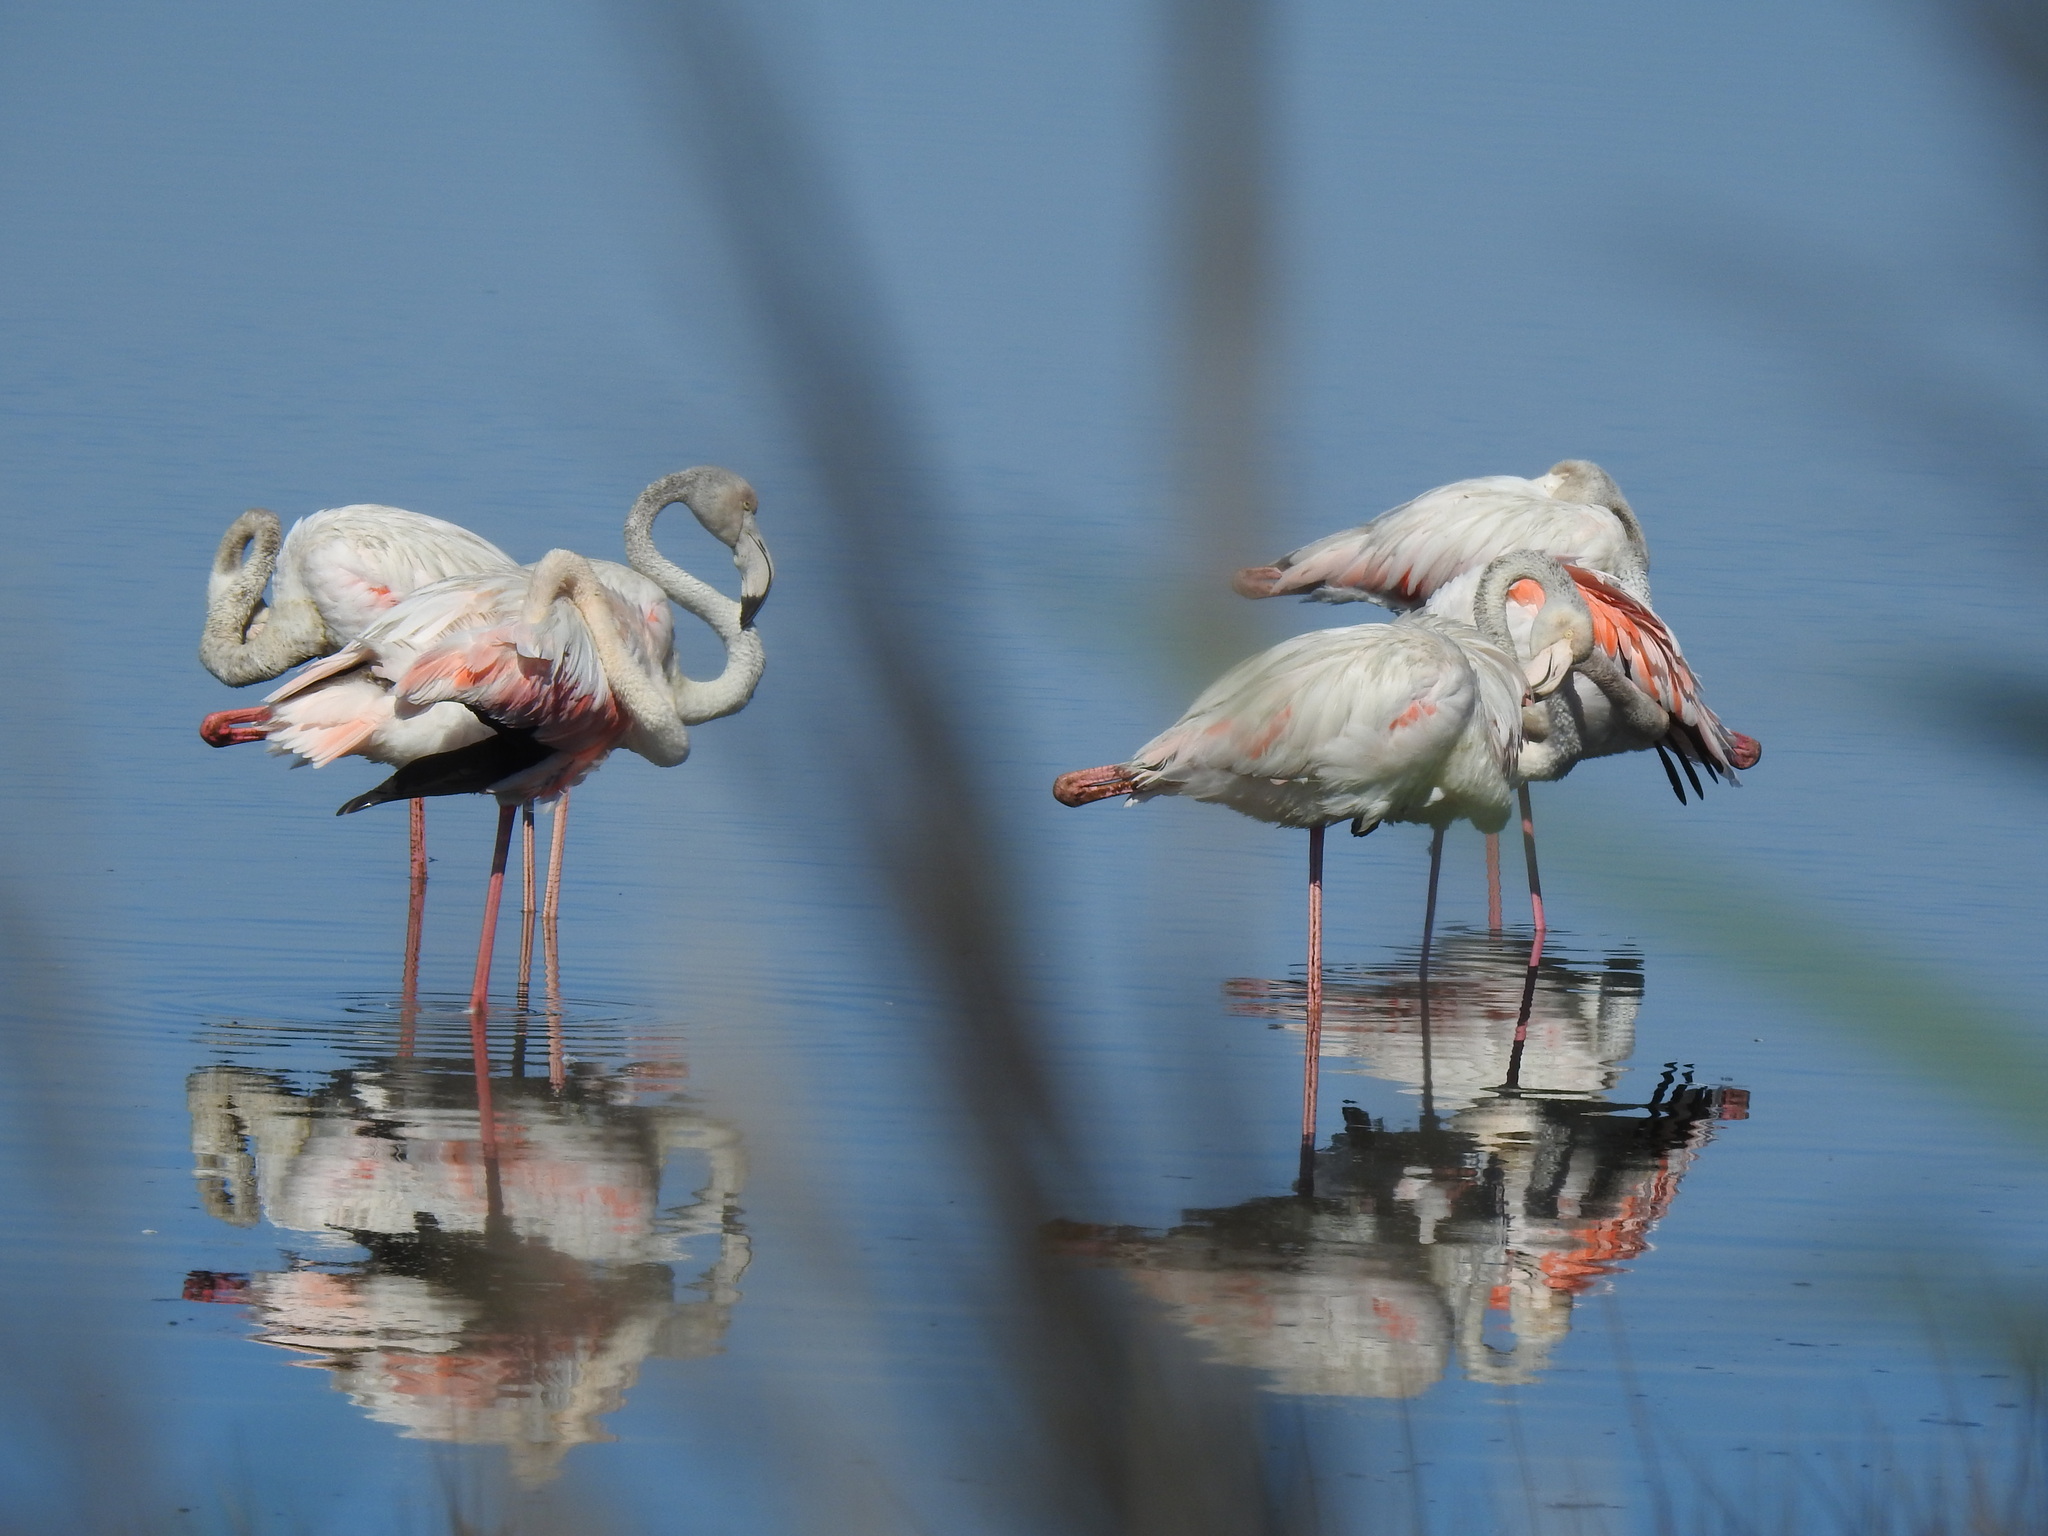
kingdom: Animalia
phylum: Chordata
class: Aves
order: Phoenicopteriformes
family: Phoenicopteridae
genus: Phoenicopterus
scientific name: Phoenicopterus roseus
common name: Greater flamingo
